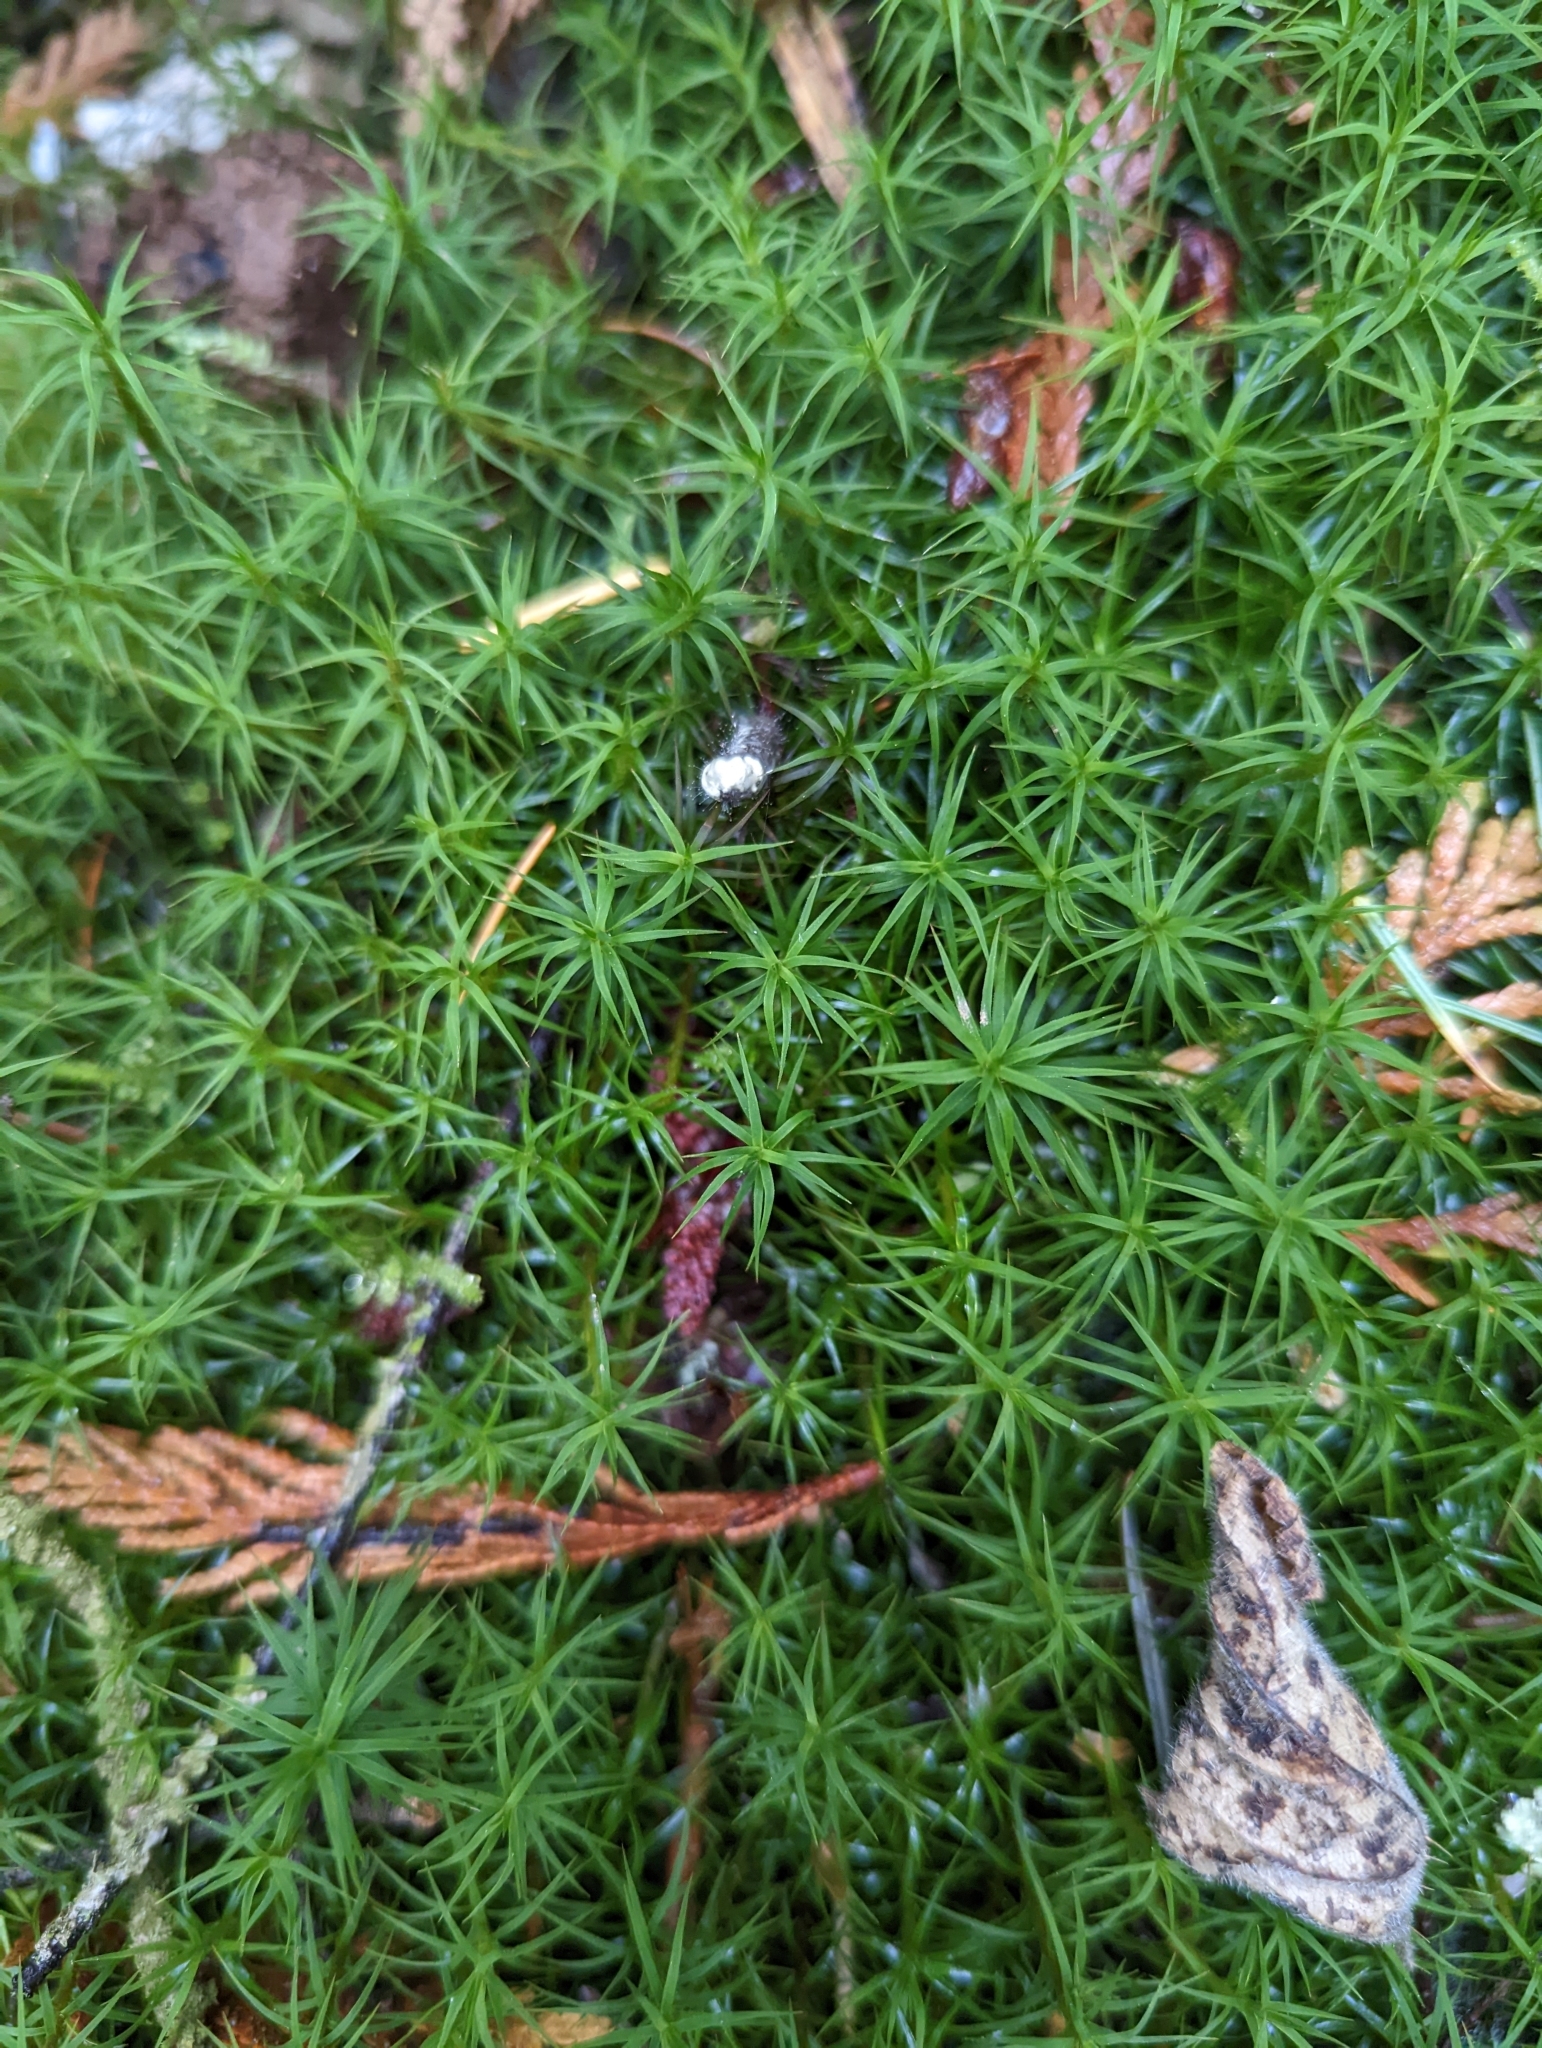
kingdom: Plantae
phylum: Bryophyta
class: Polytrichopsida
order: Polytrichales
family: Polytrichaceae
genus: Polytrichastrum
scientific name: Polytrichastrum alpinum
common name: Alpine haircap
